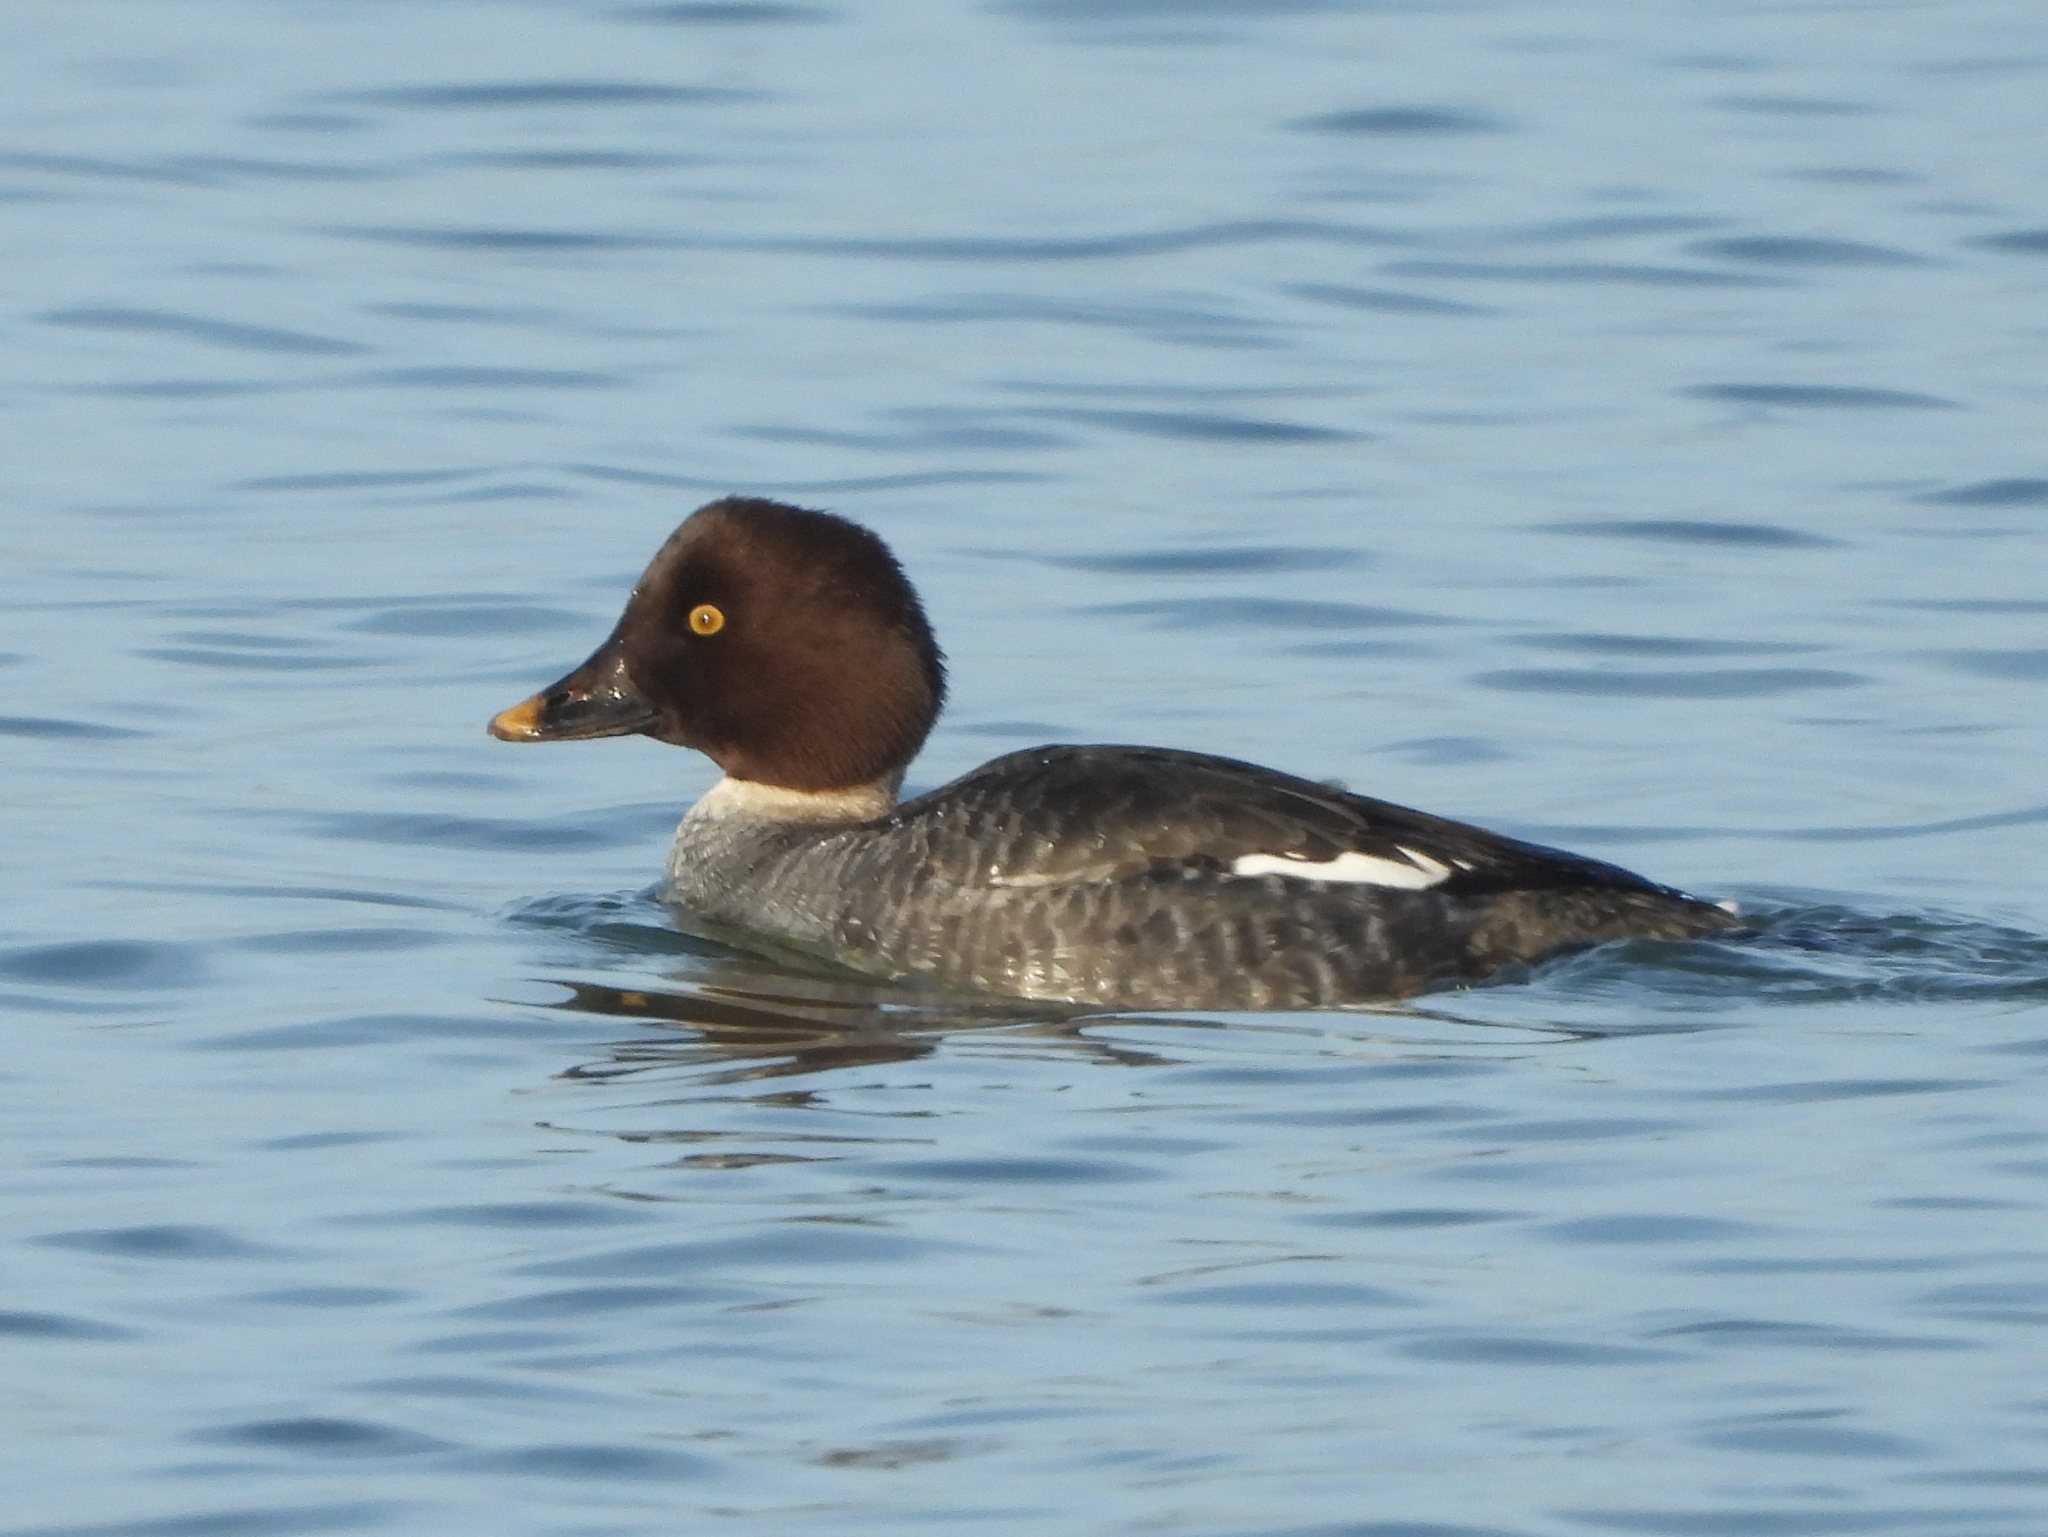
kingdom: Animalia
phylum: Chordata
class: Aves
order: Anseriformes
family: Anatidae
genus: Bucephala
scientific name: Bucephala clangula
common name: Common goldeneye
